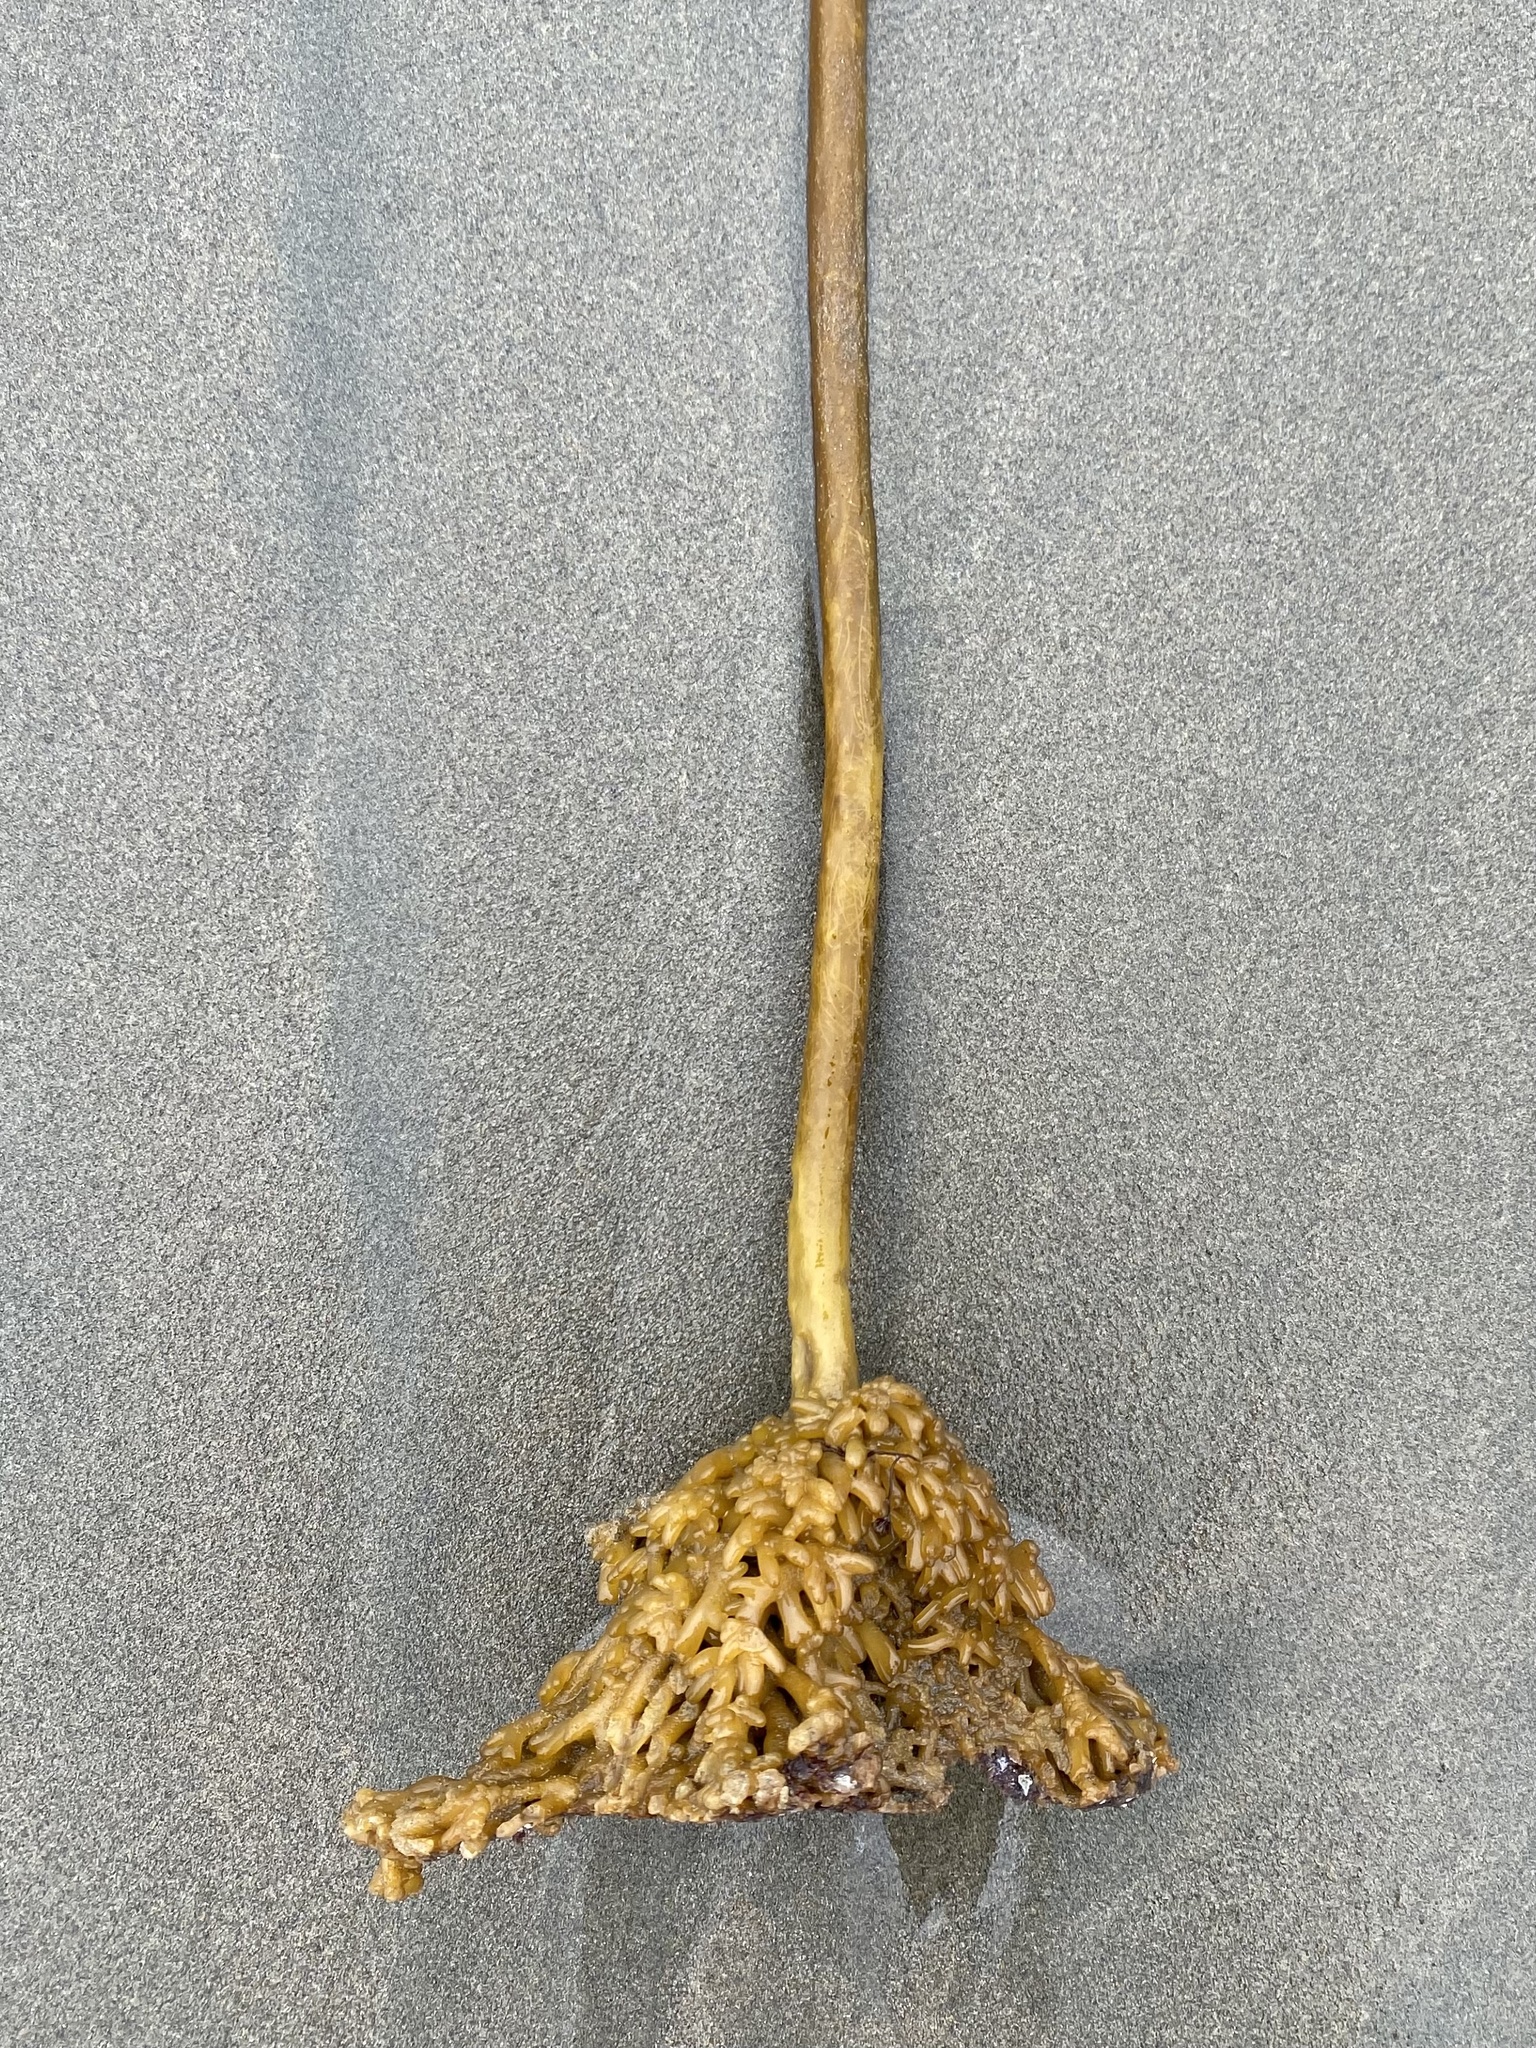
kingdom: Chromista
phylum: Ochrophyta
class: Phaeophyceae
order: Laminariales
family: Laminariaceae
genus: Nereocystis
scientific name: Nereocystis luetkeana
